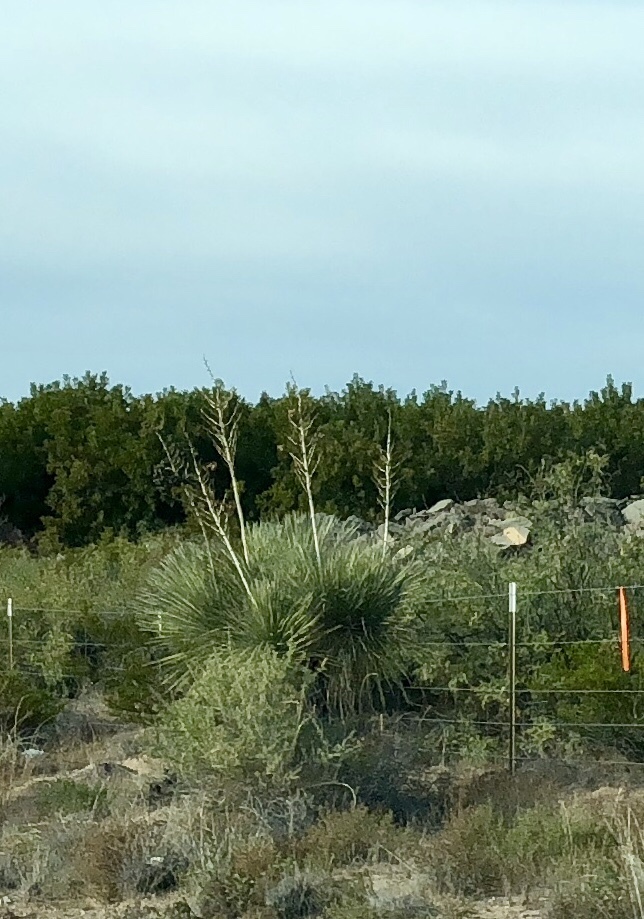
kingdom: Plantae
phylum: Tracheophyta
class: Liliopsida
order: Asparagales
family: Asparagaceae
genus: Yucca
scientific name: Yucca elata
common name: Palmella
